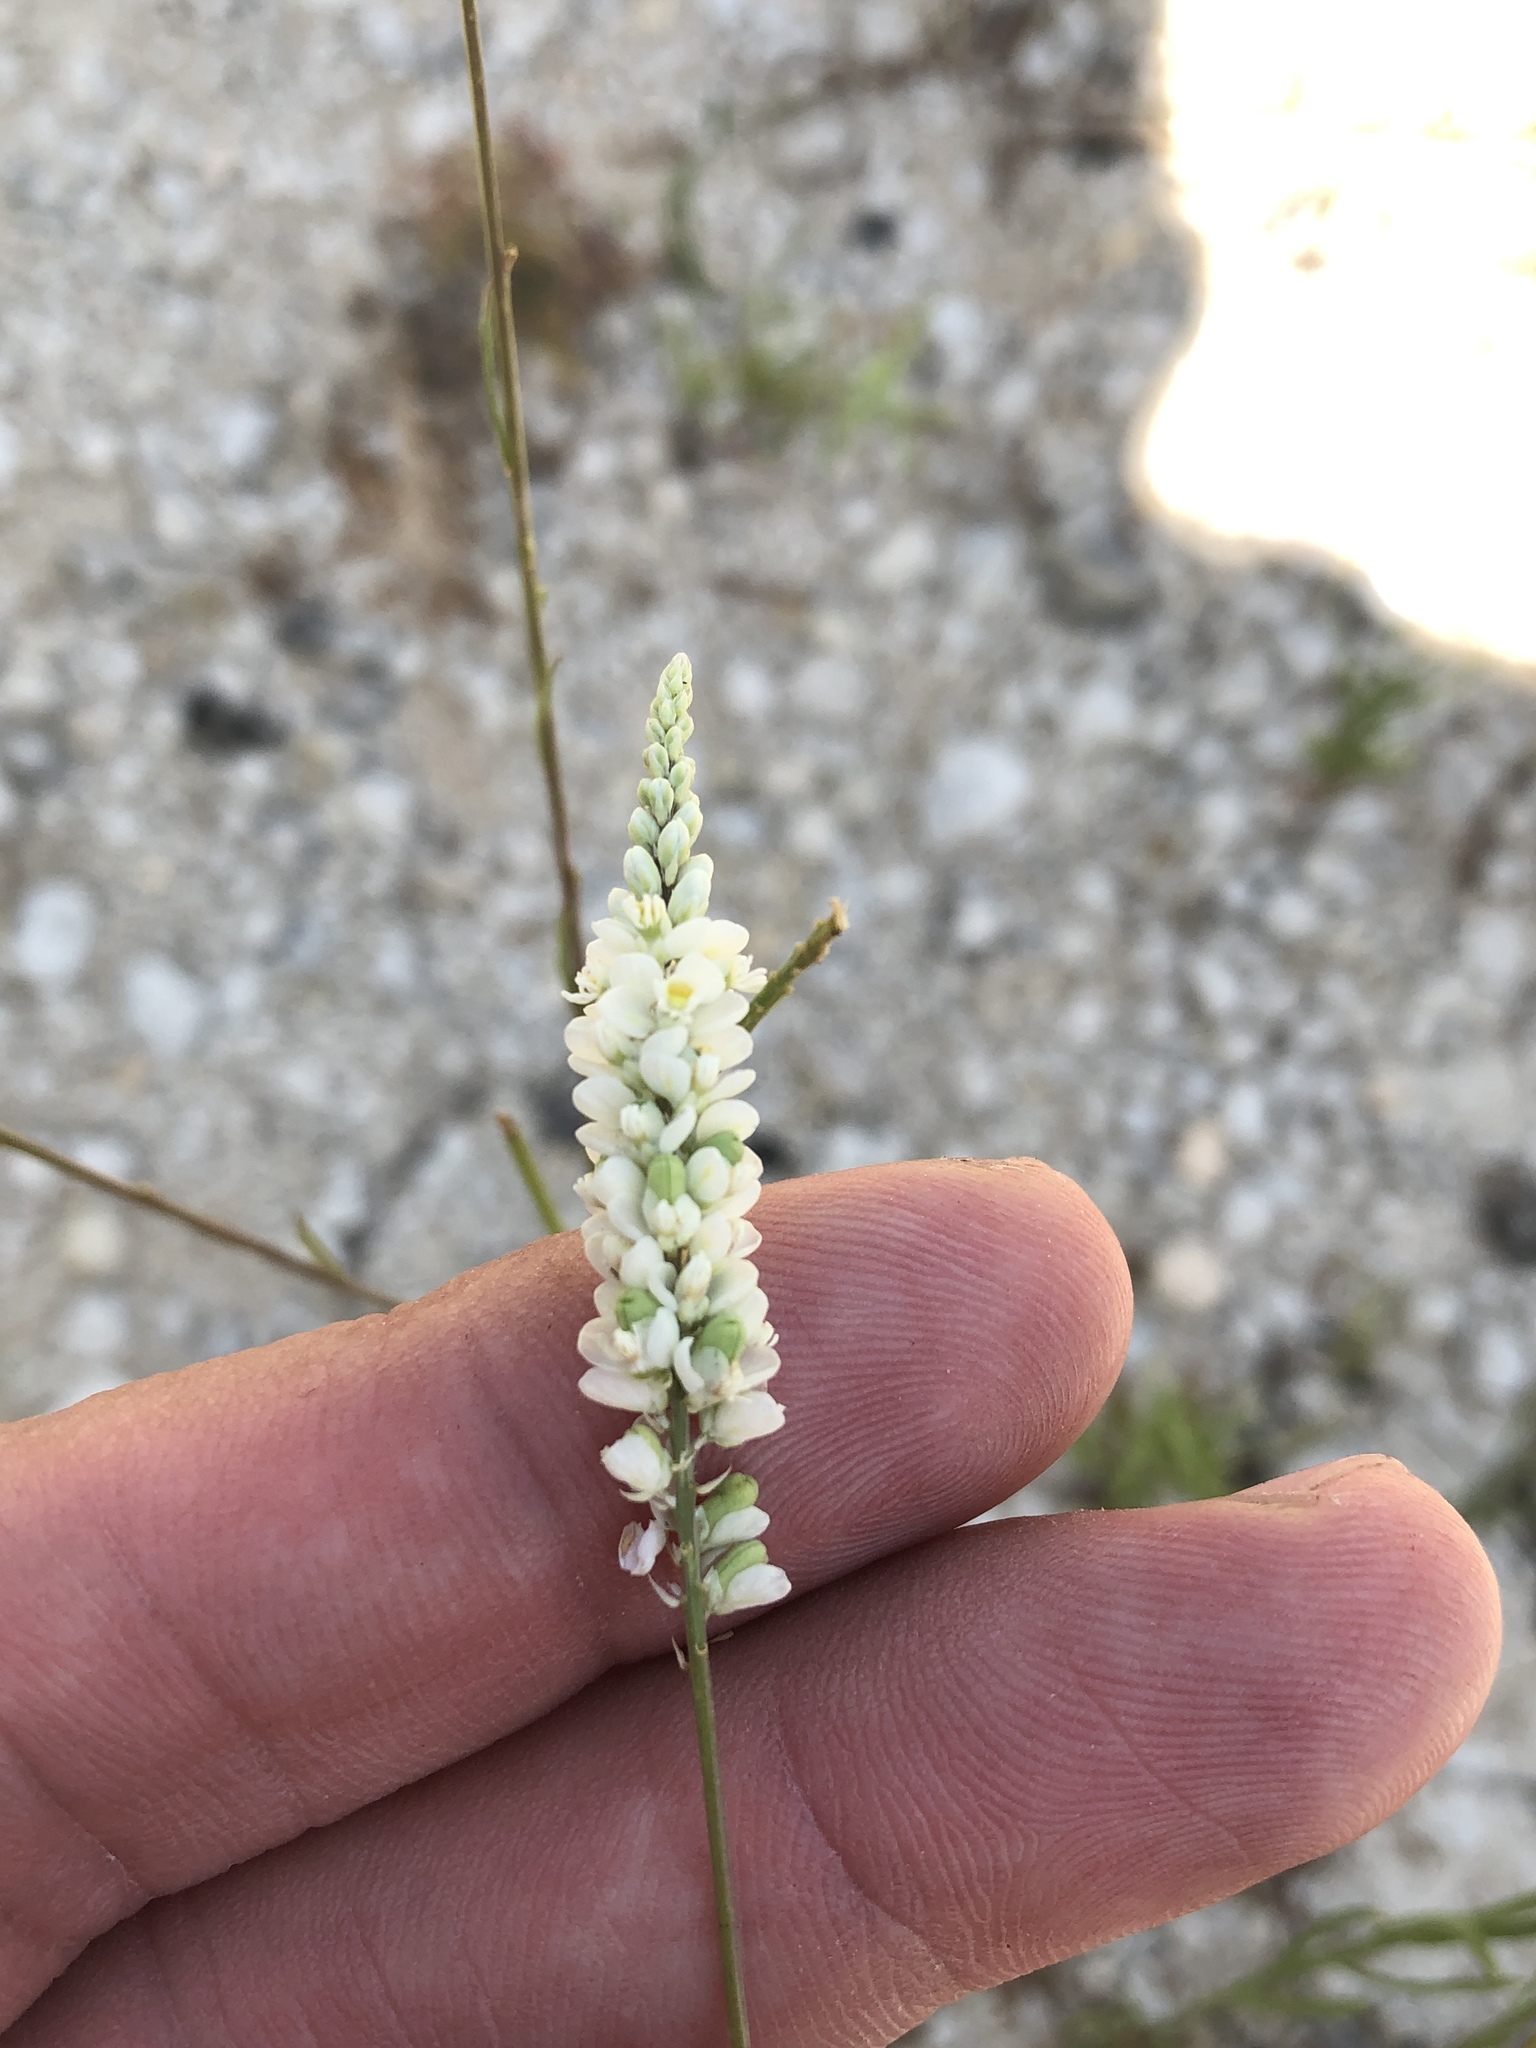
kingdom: Plantae
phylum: Tracheophyta
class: Magnoliopsida
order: Fabales
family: Polygalaceae
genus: Polygala
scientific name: Polygala alba
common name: White milkwort
